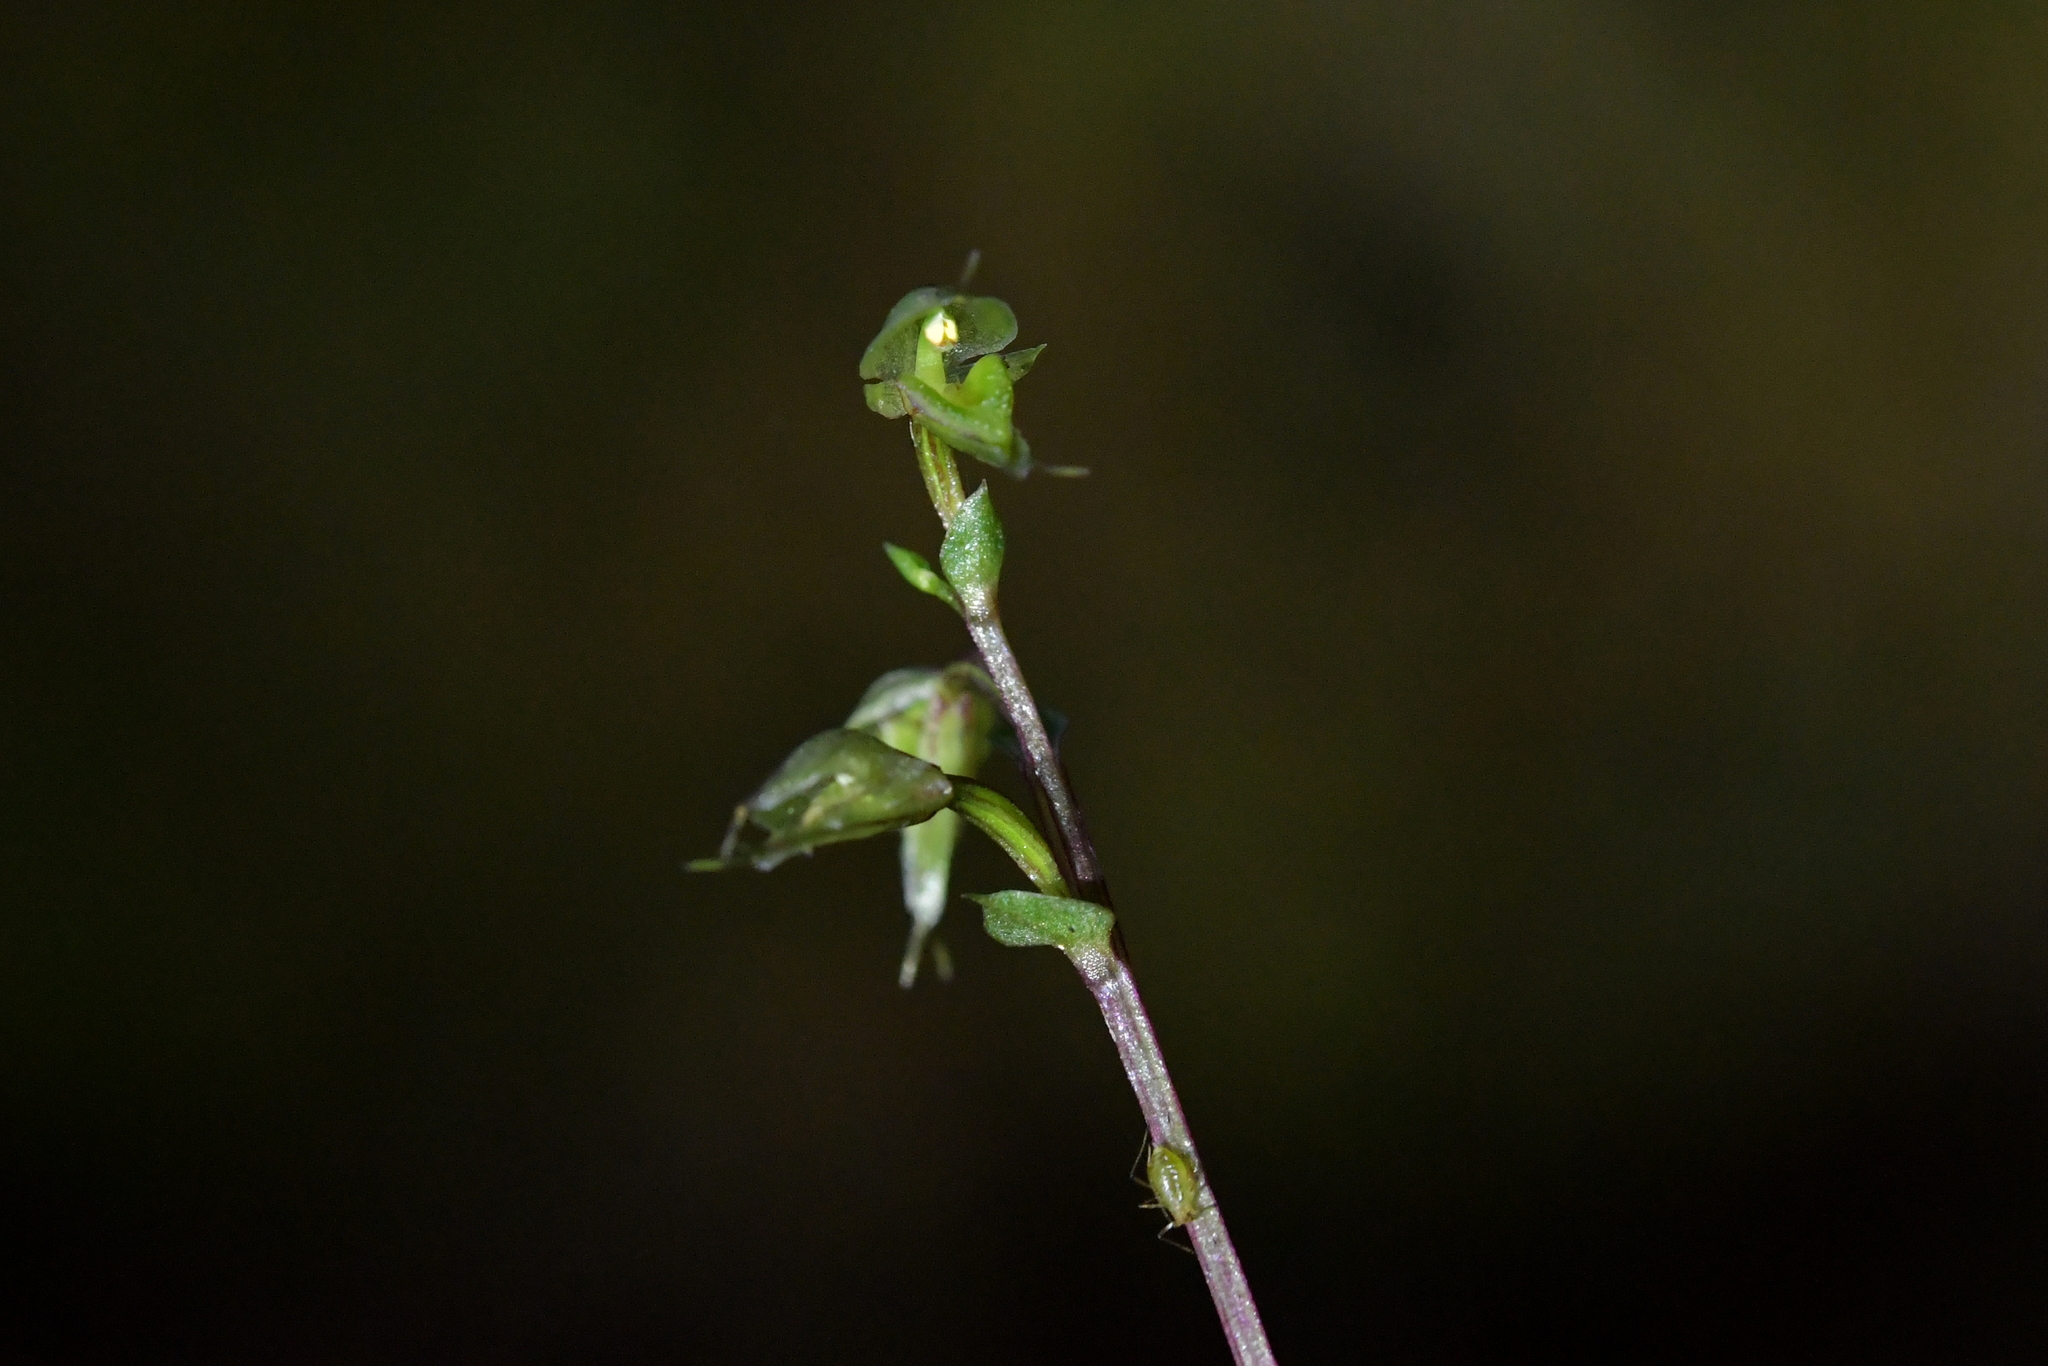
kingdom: Plantae
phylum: Tracheophyta
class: Liliopsida
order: Asparagales
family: Orchidaceae
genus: Acianthus
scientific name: Acianthus sinclairii
